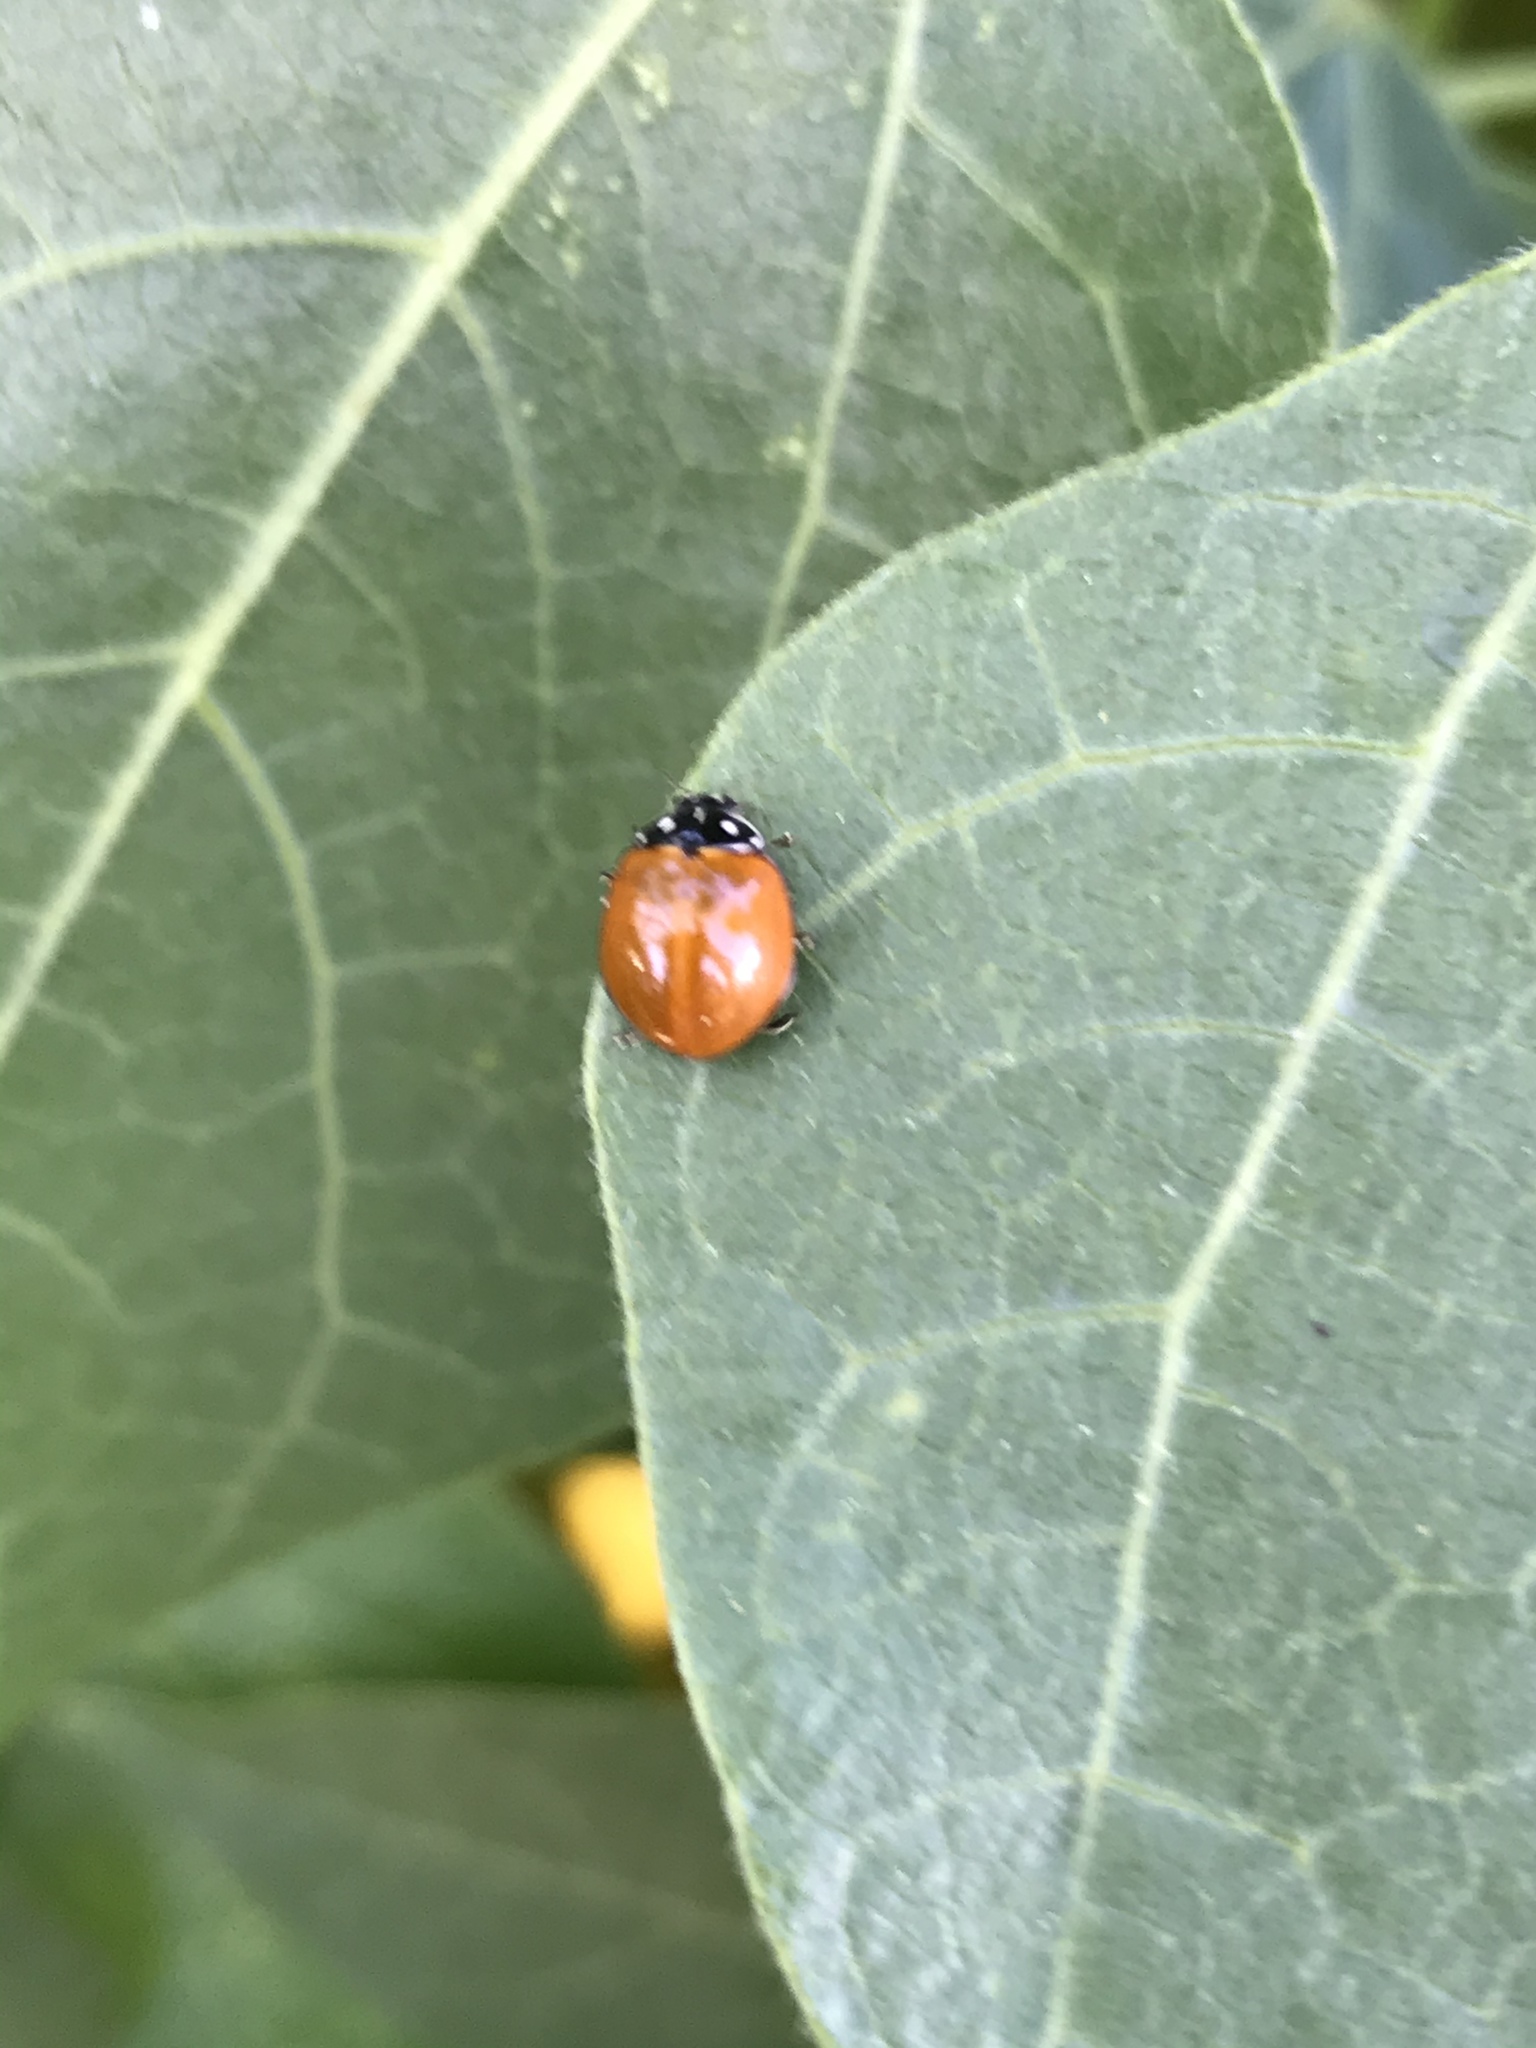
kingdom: Animalia
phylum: Arthropoda
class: Insecta
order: Coleoptera
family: Coccinellidae
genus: Cycloneda
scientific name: Cycloneda sanguinea
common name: Ladybird beetle
